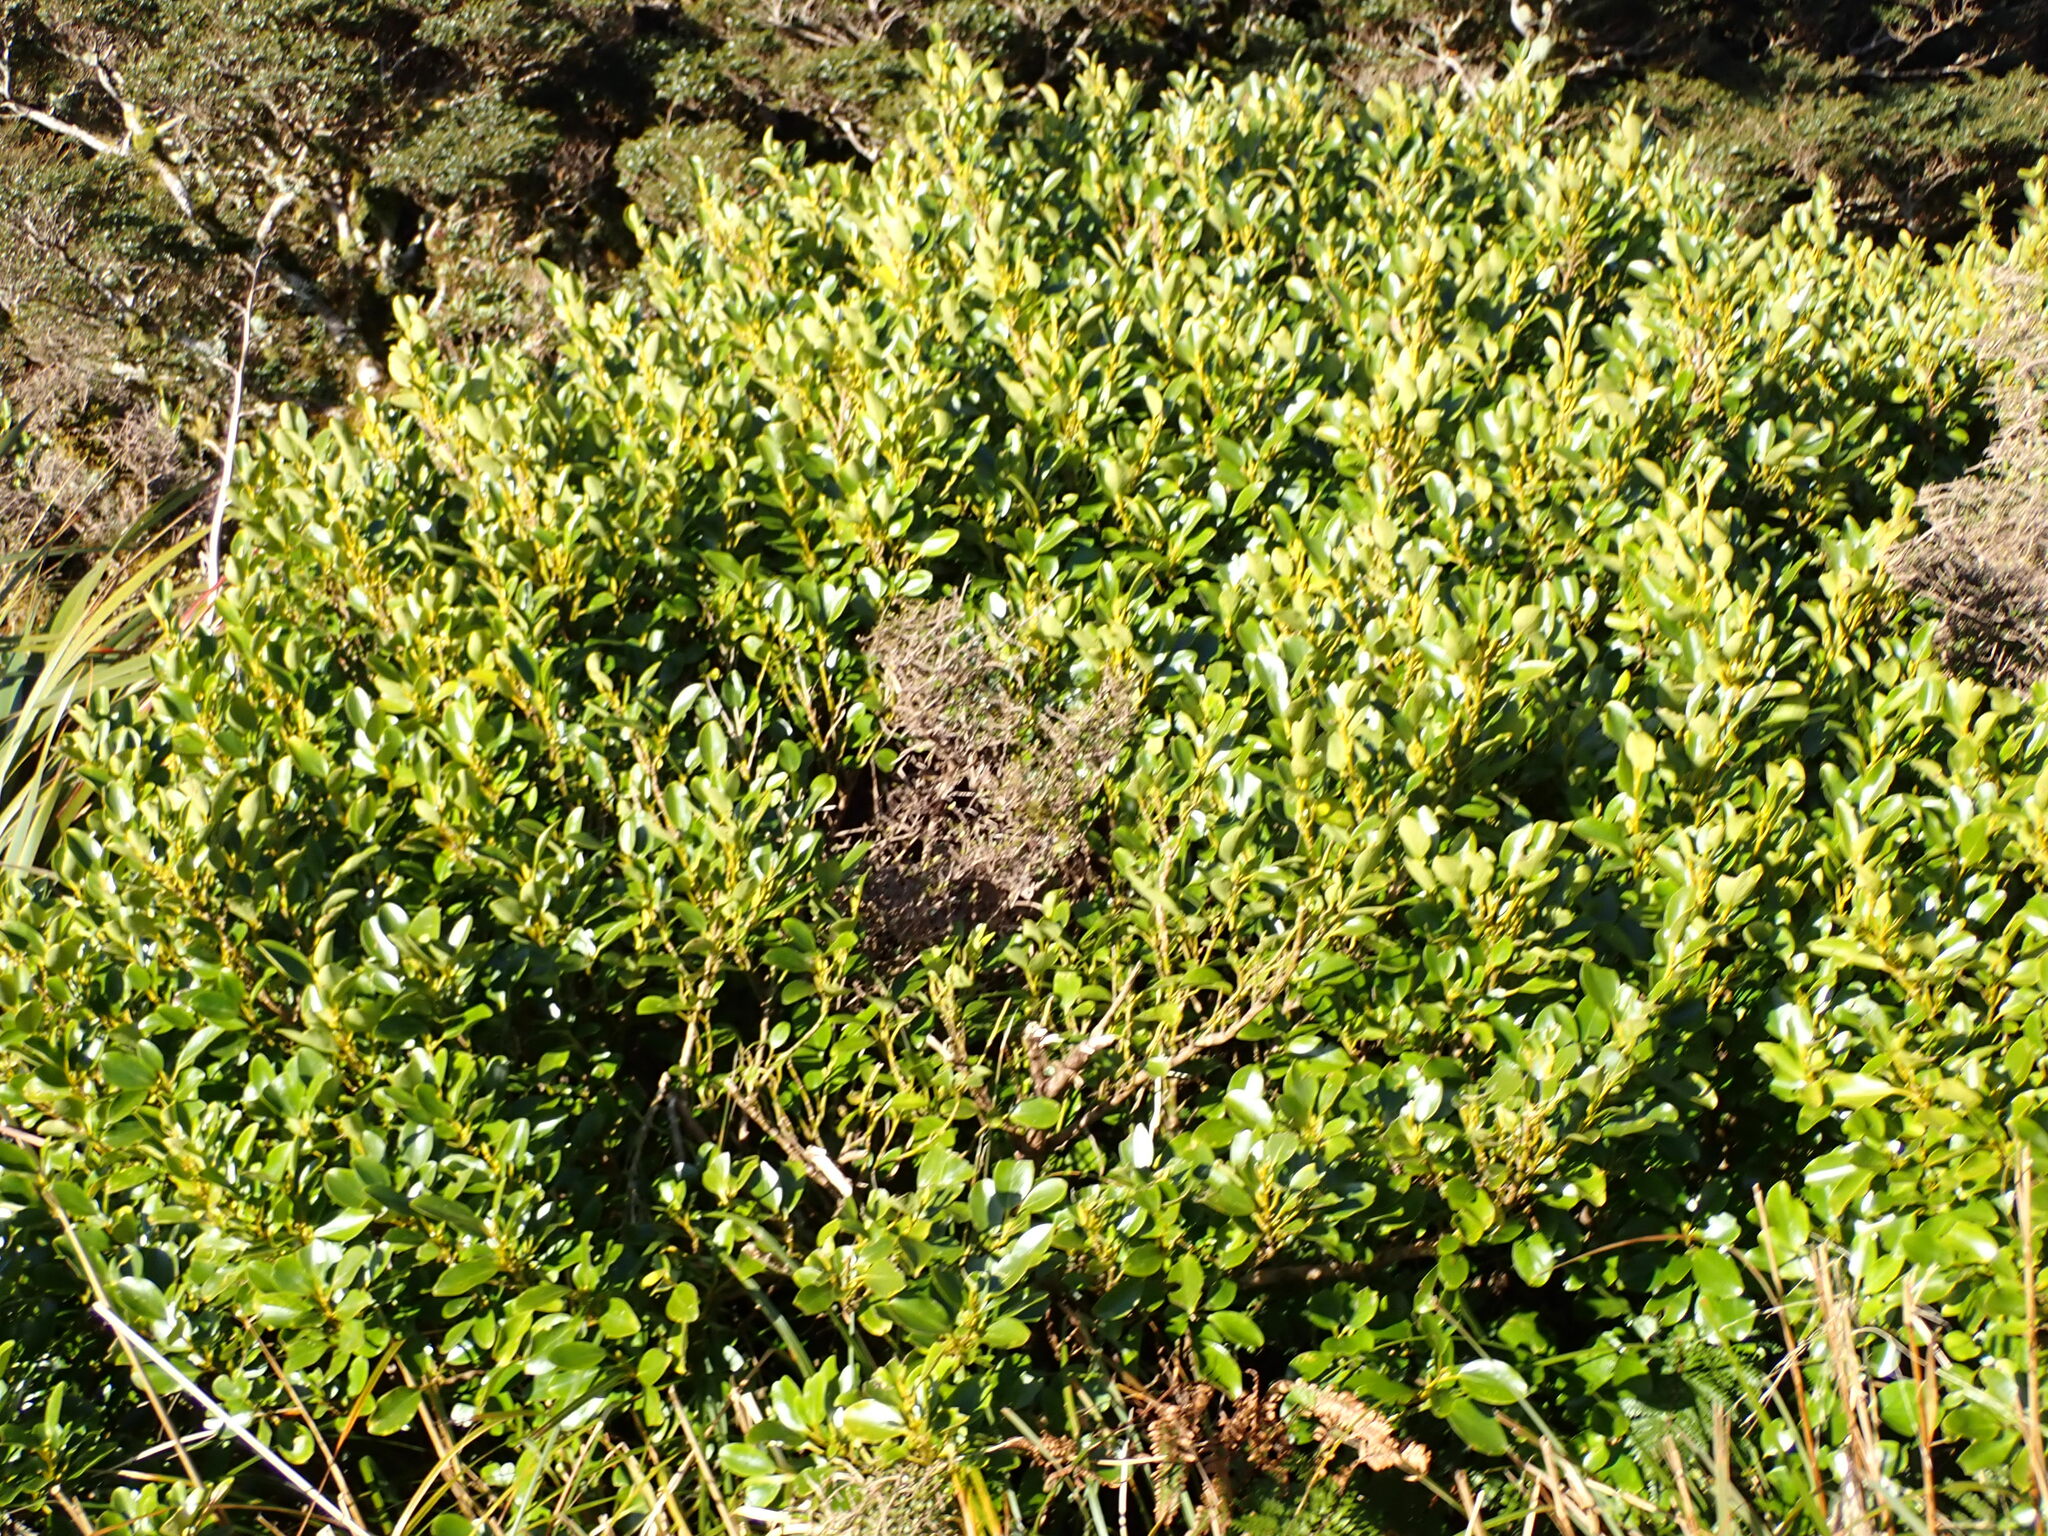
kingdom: Plantae
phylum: Tracheophyta
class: Magnoliopsida
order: Apiales
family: Griseliniaceae
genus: Griselinia
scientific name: Griselinia littoralis
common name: New zealand broadleaf
